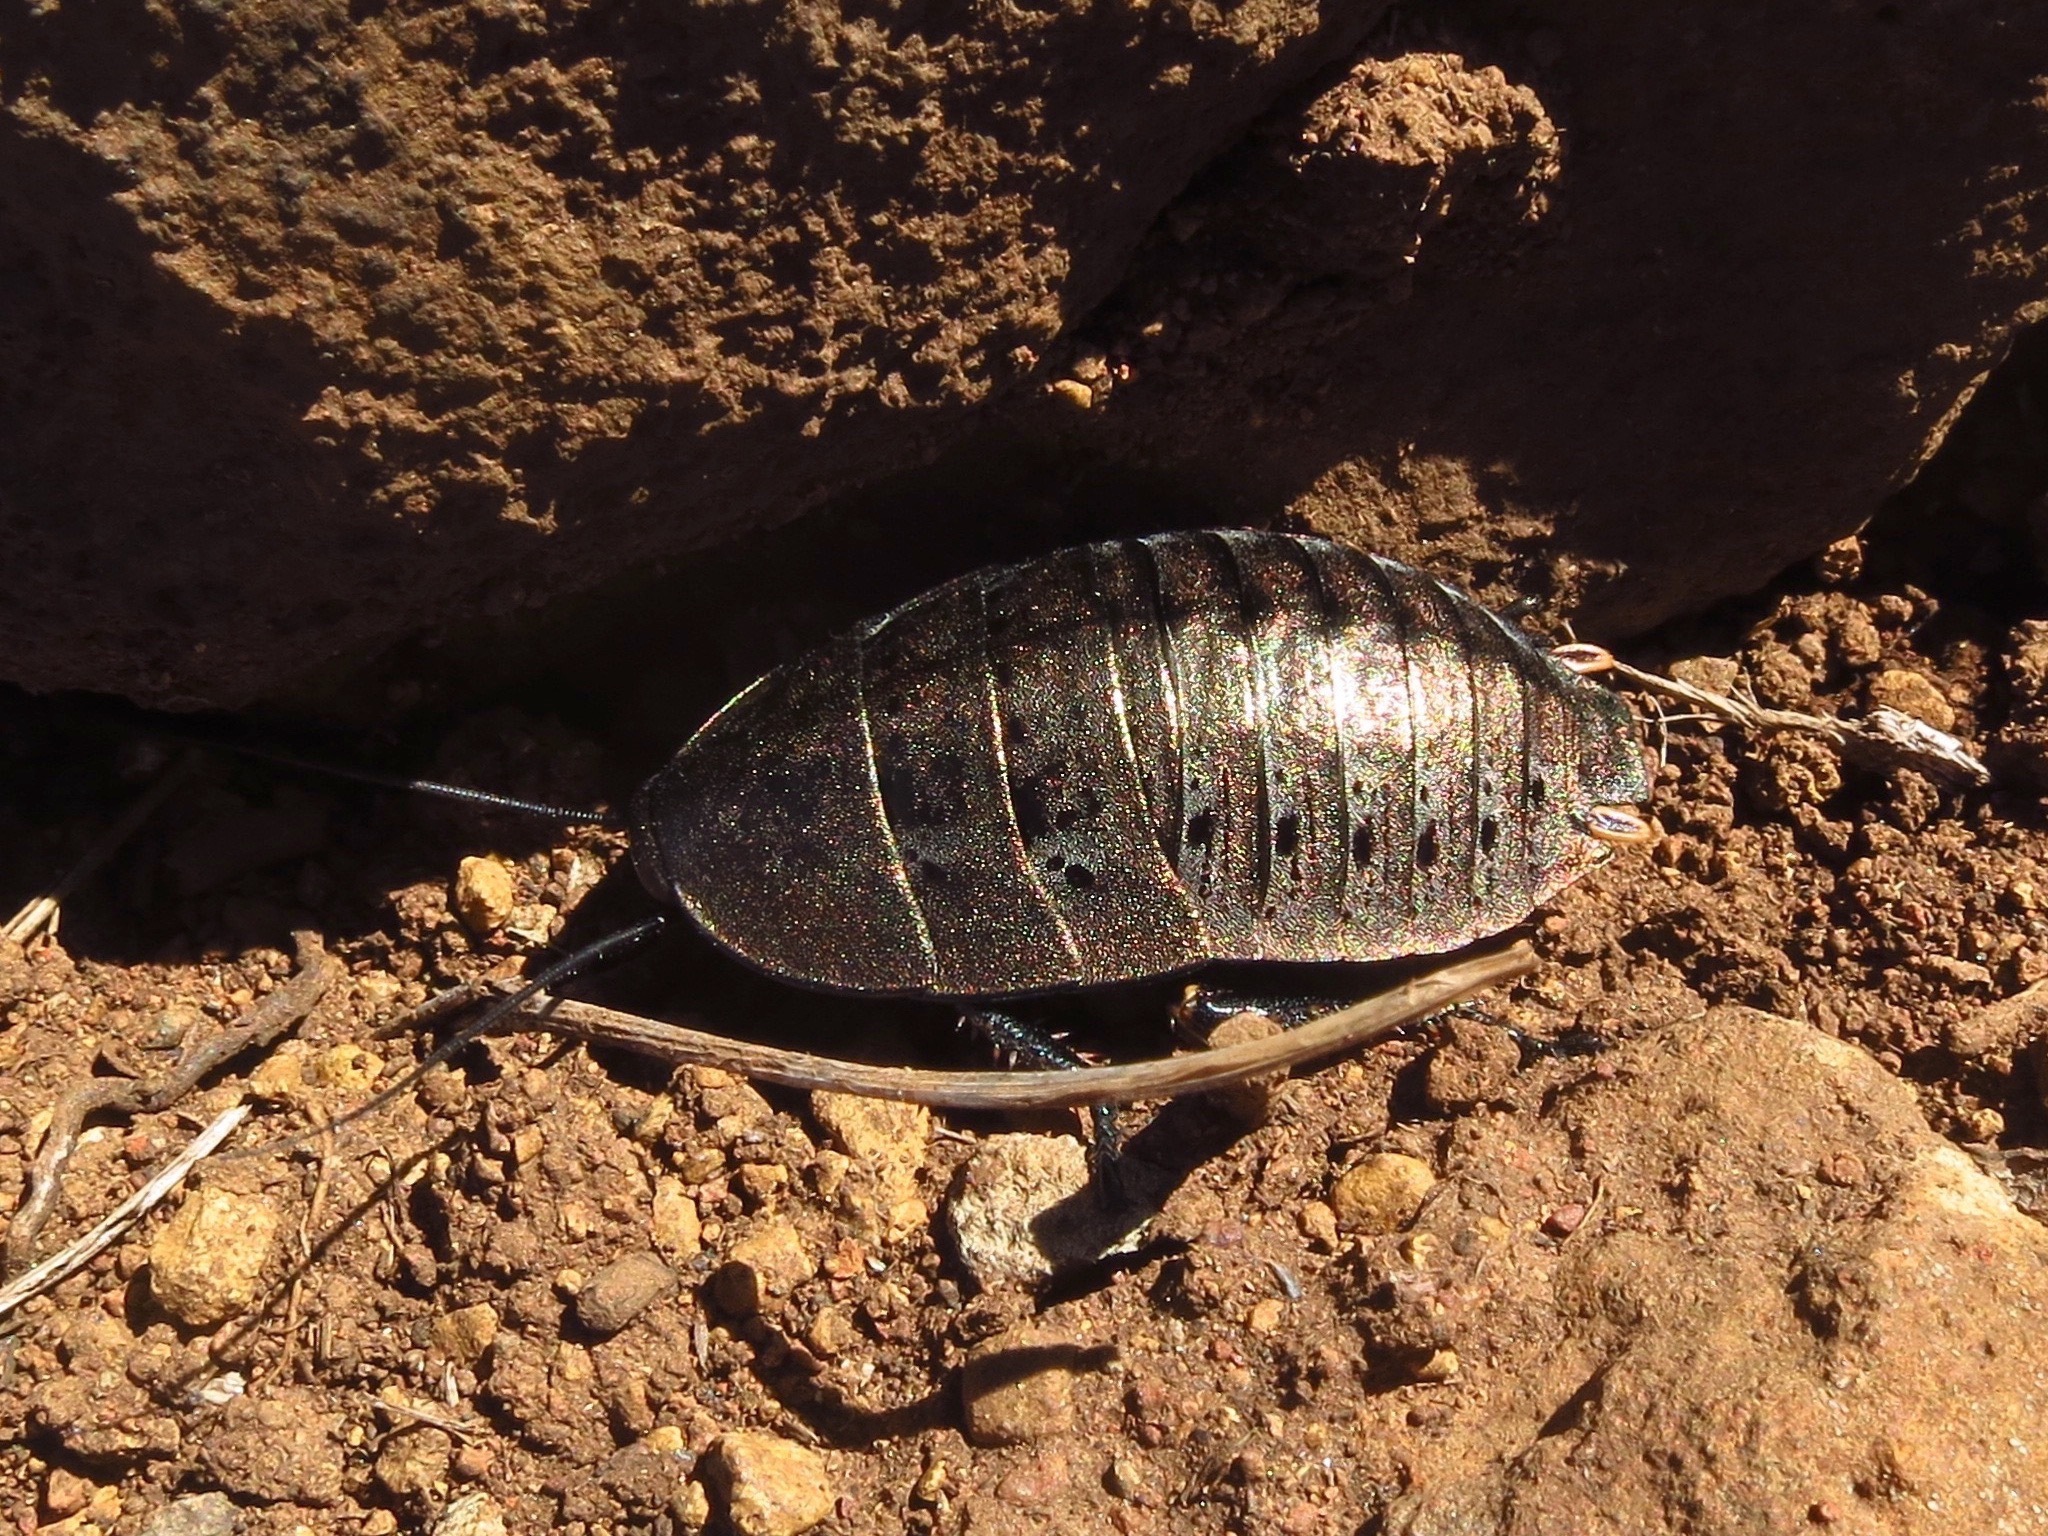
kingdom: Animalia
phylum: Arthropoda
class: Insecta
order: Blattodea
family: Blattidae
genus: Polyzosteria
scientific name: Polyzosteria yingina
